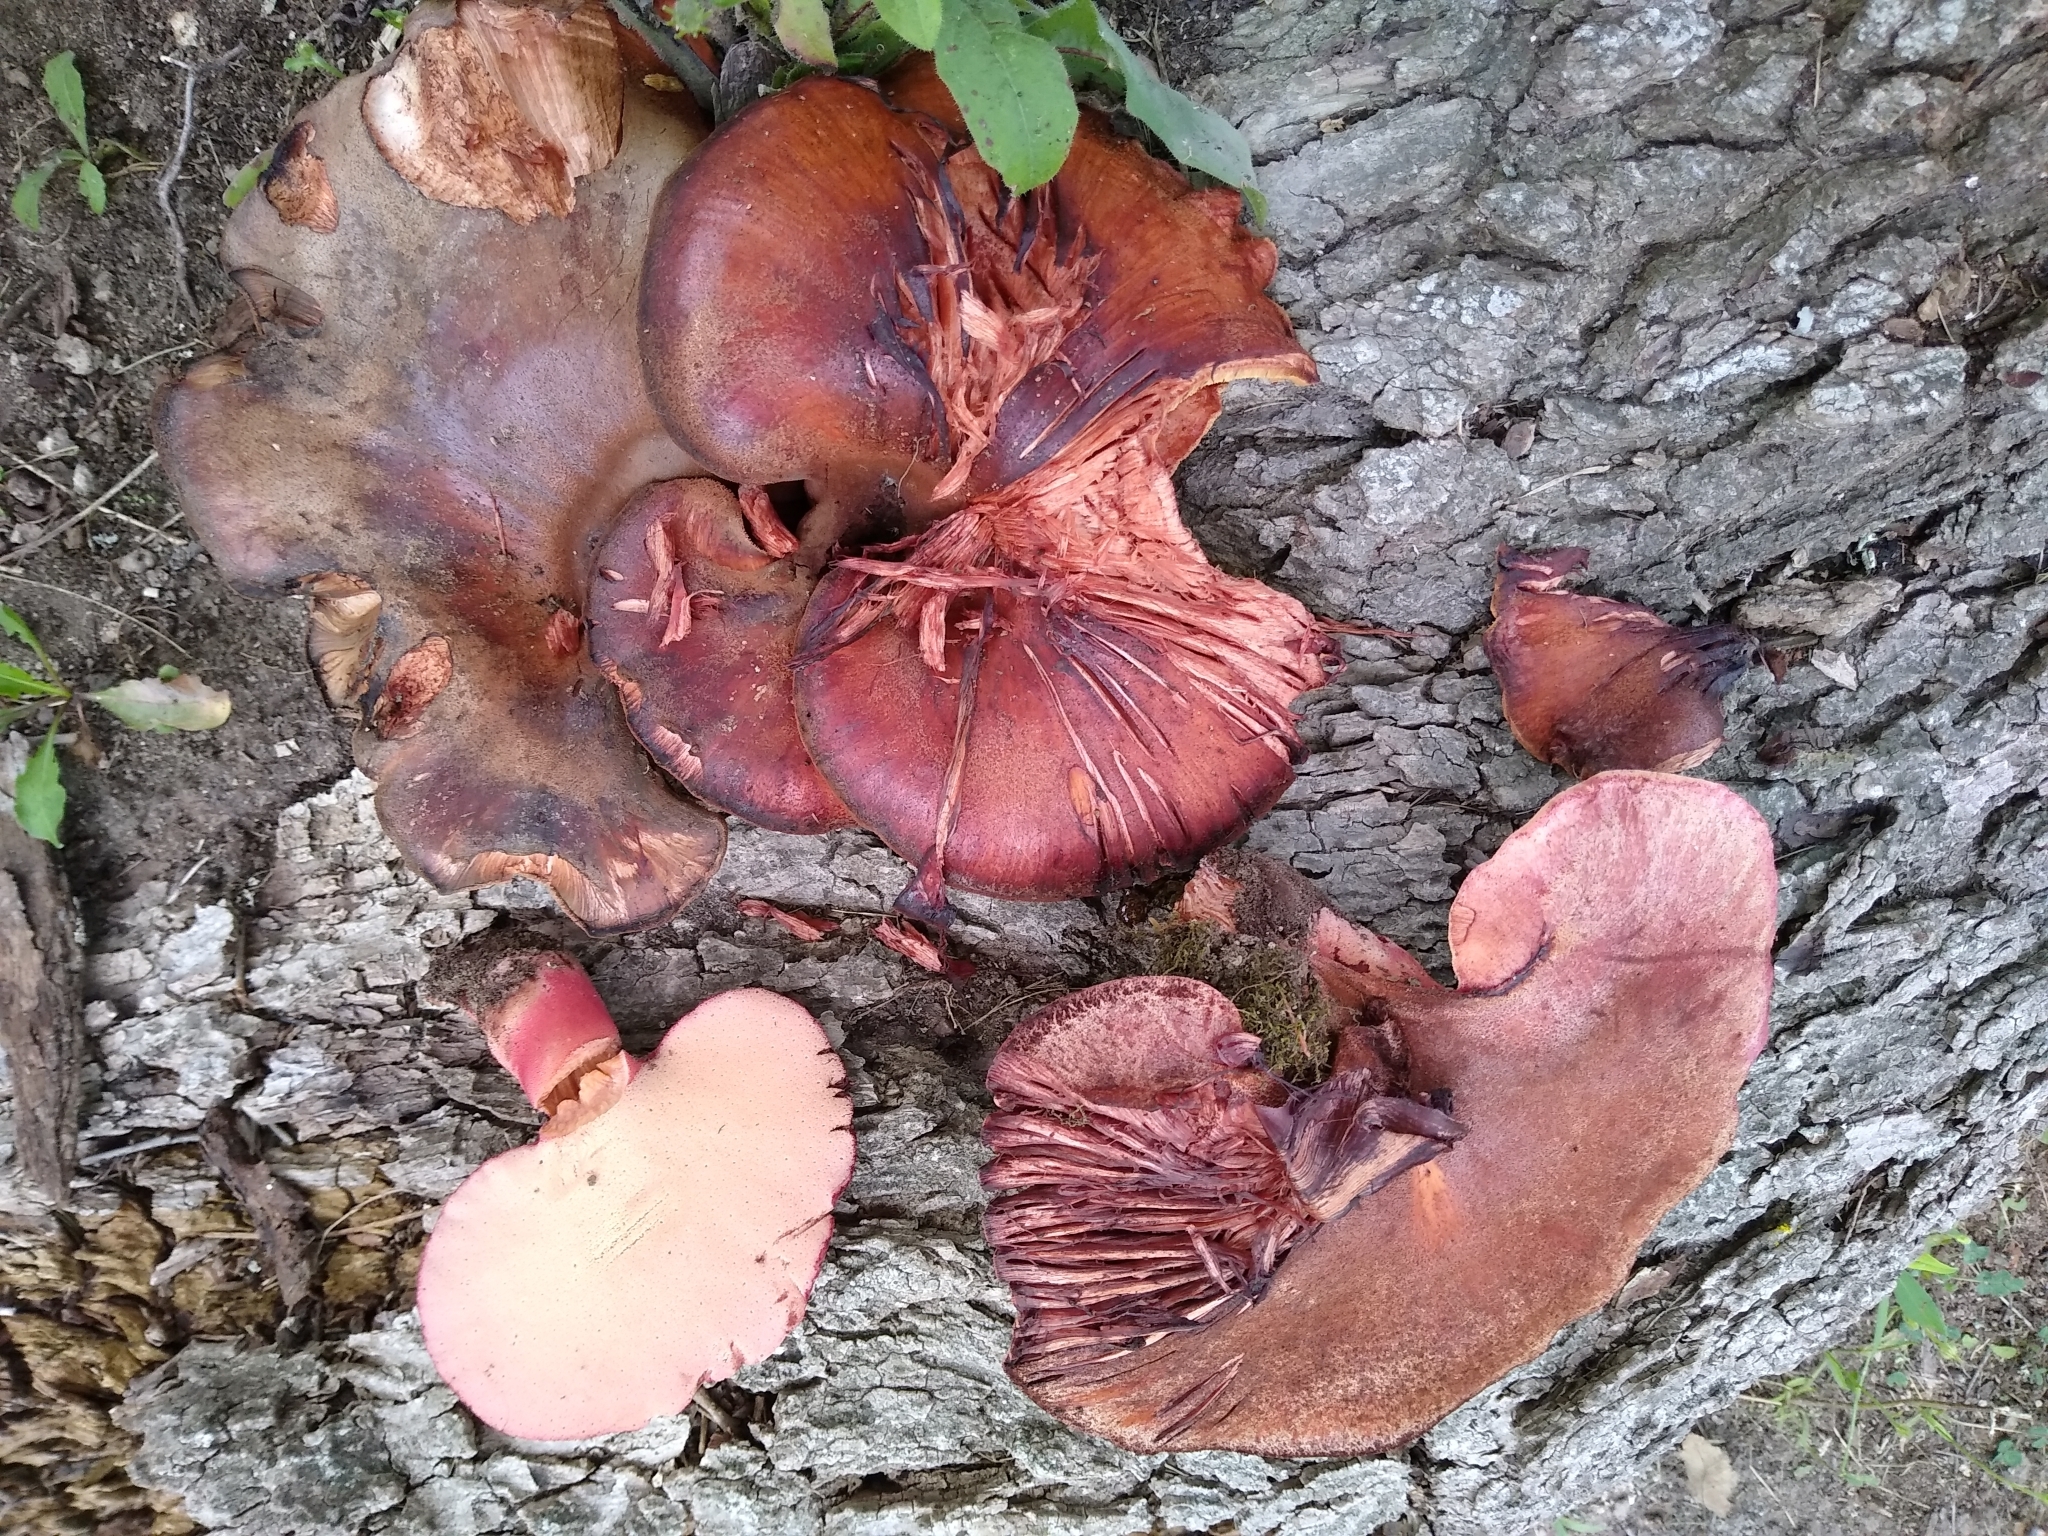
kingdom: Fungi
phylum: Basidiomycota
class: Agaricomycetes
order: Agaricales
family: Fistulinaceae
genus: Fistulina
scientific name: Fistulina hepatica
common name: Beef-steak fungus
